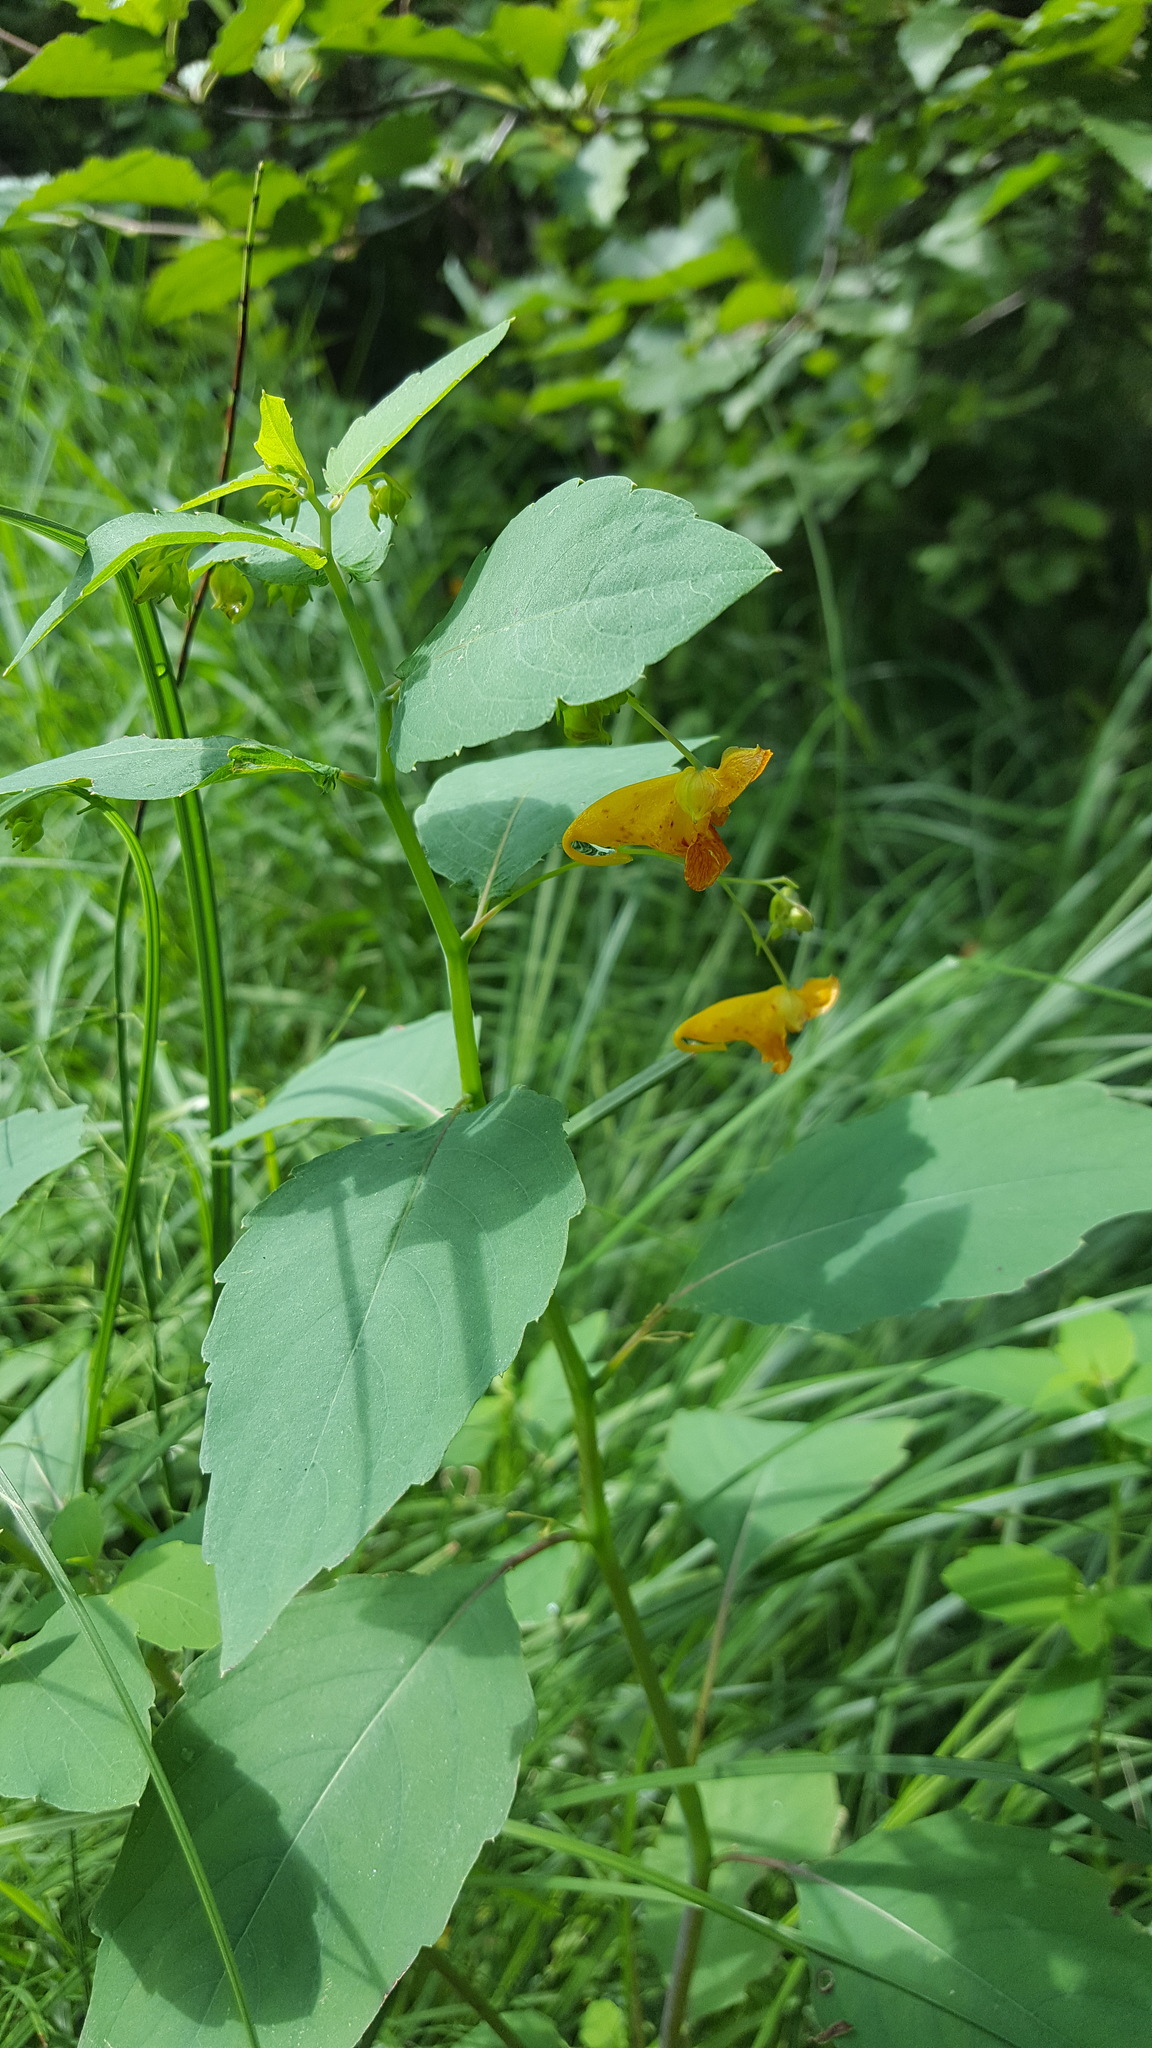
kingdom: Plantae
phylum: Tracheophyta
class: Magnoliopsida
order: Ericales
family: Balsaminaceae
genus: Impatiens
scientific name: Impatiens capensis
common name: Orange balsam
